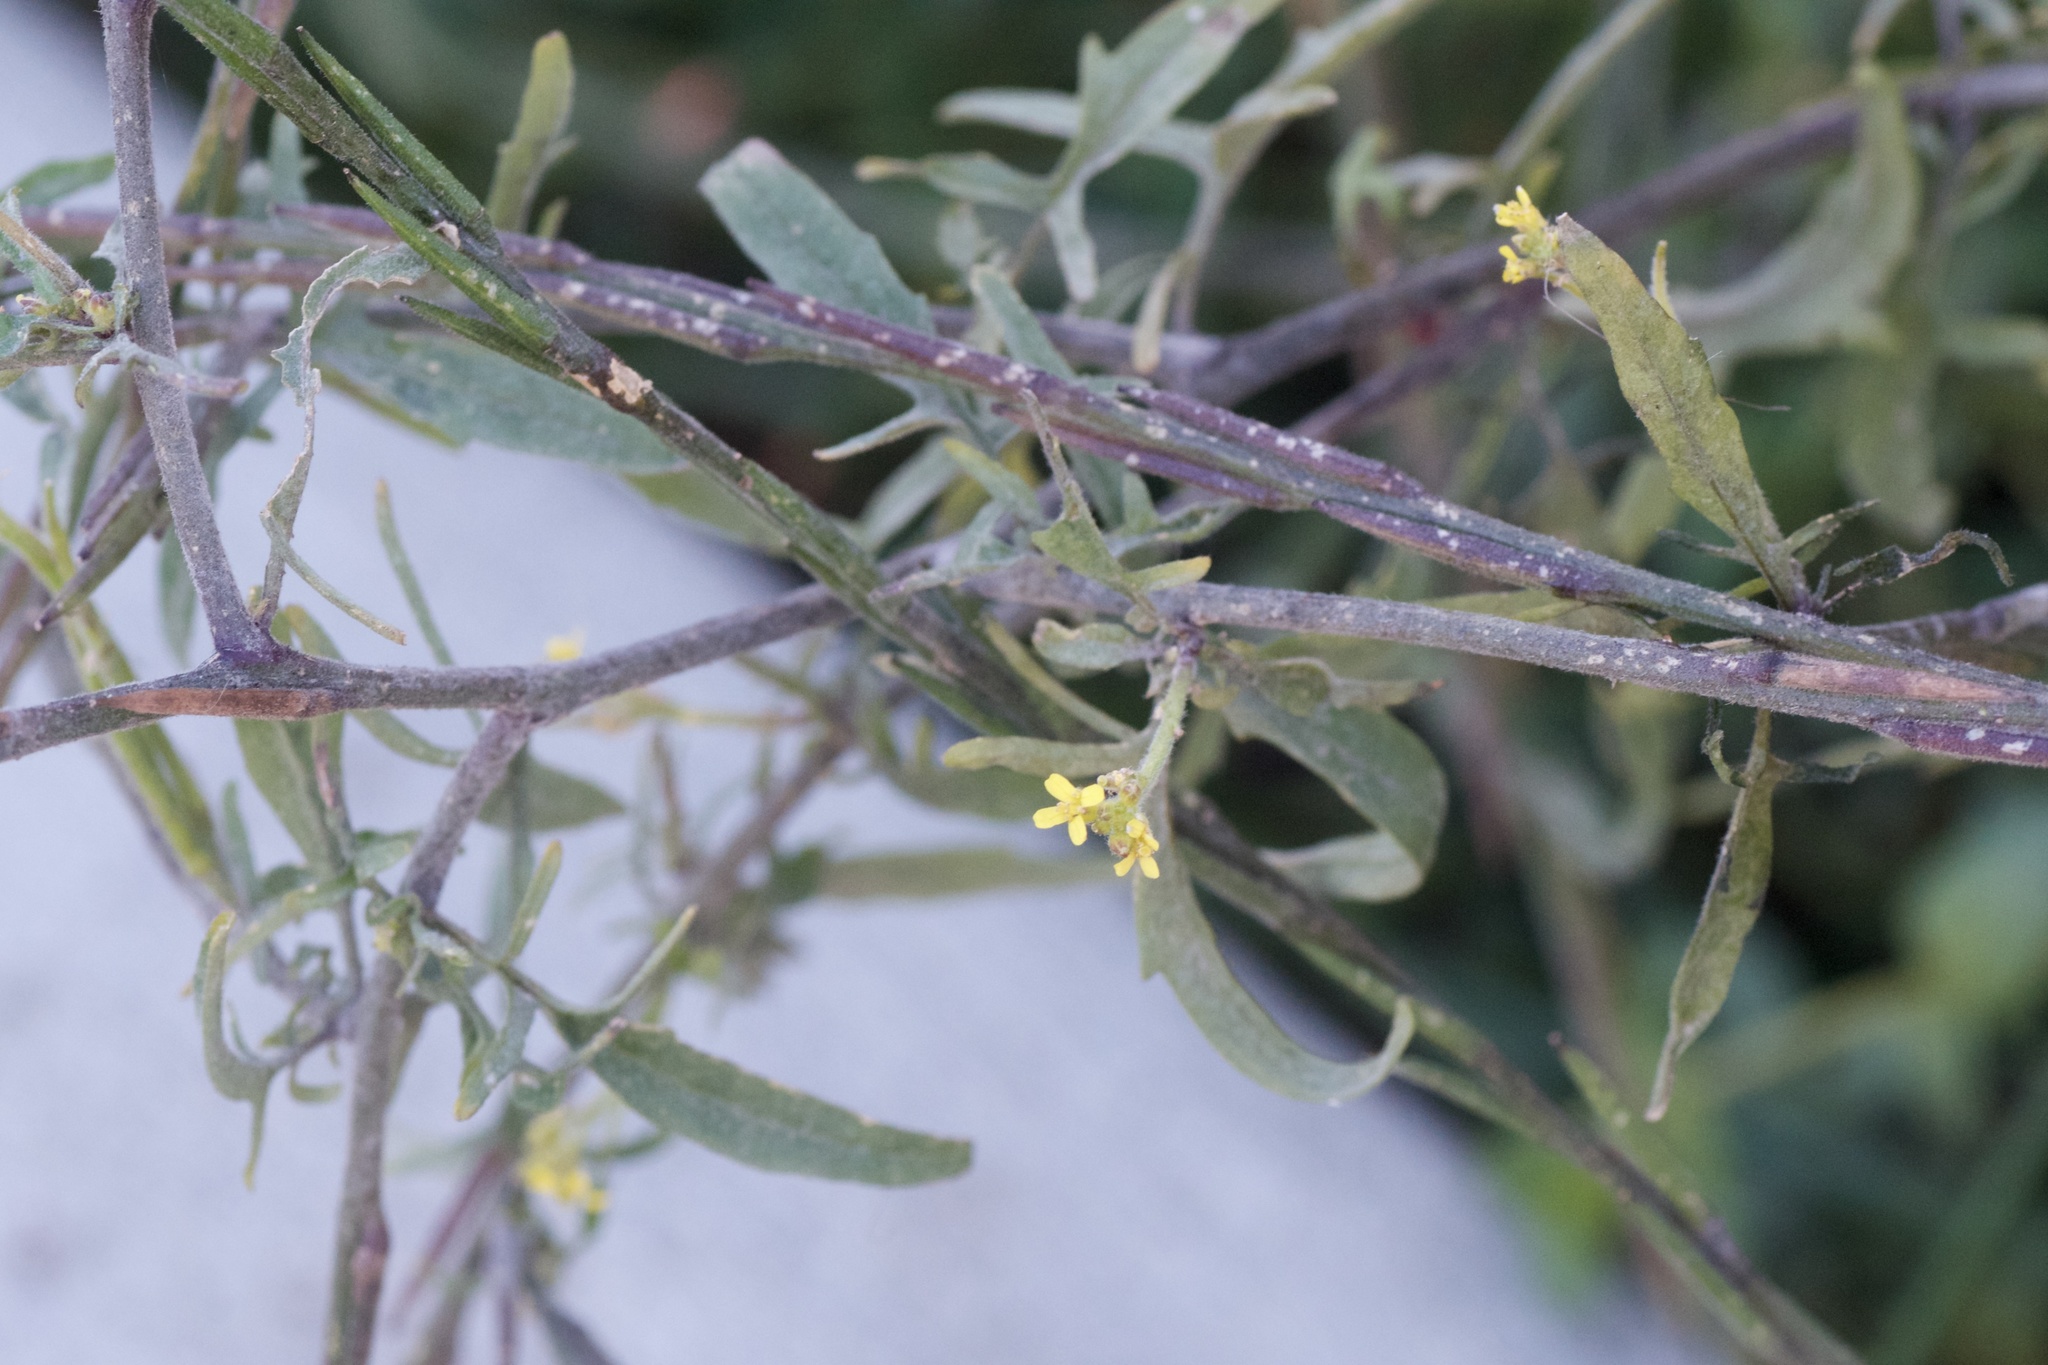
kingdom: Plantae
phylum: Tracheophyta
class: Magnoliopsida
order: Brassicales
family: Brassicaceae
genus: Sisymbrium
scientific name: Sisymbrium officinale
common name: Hedge mustard
